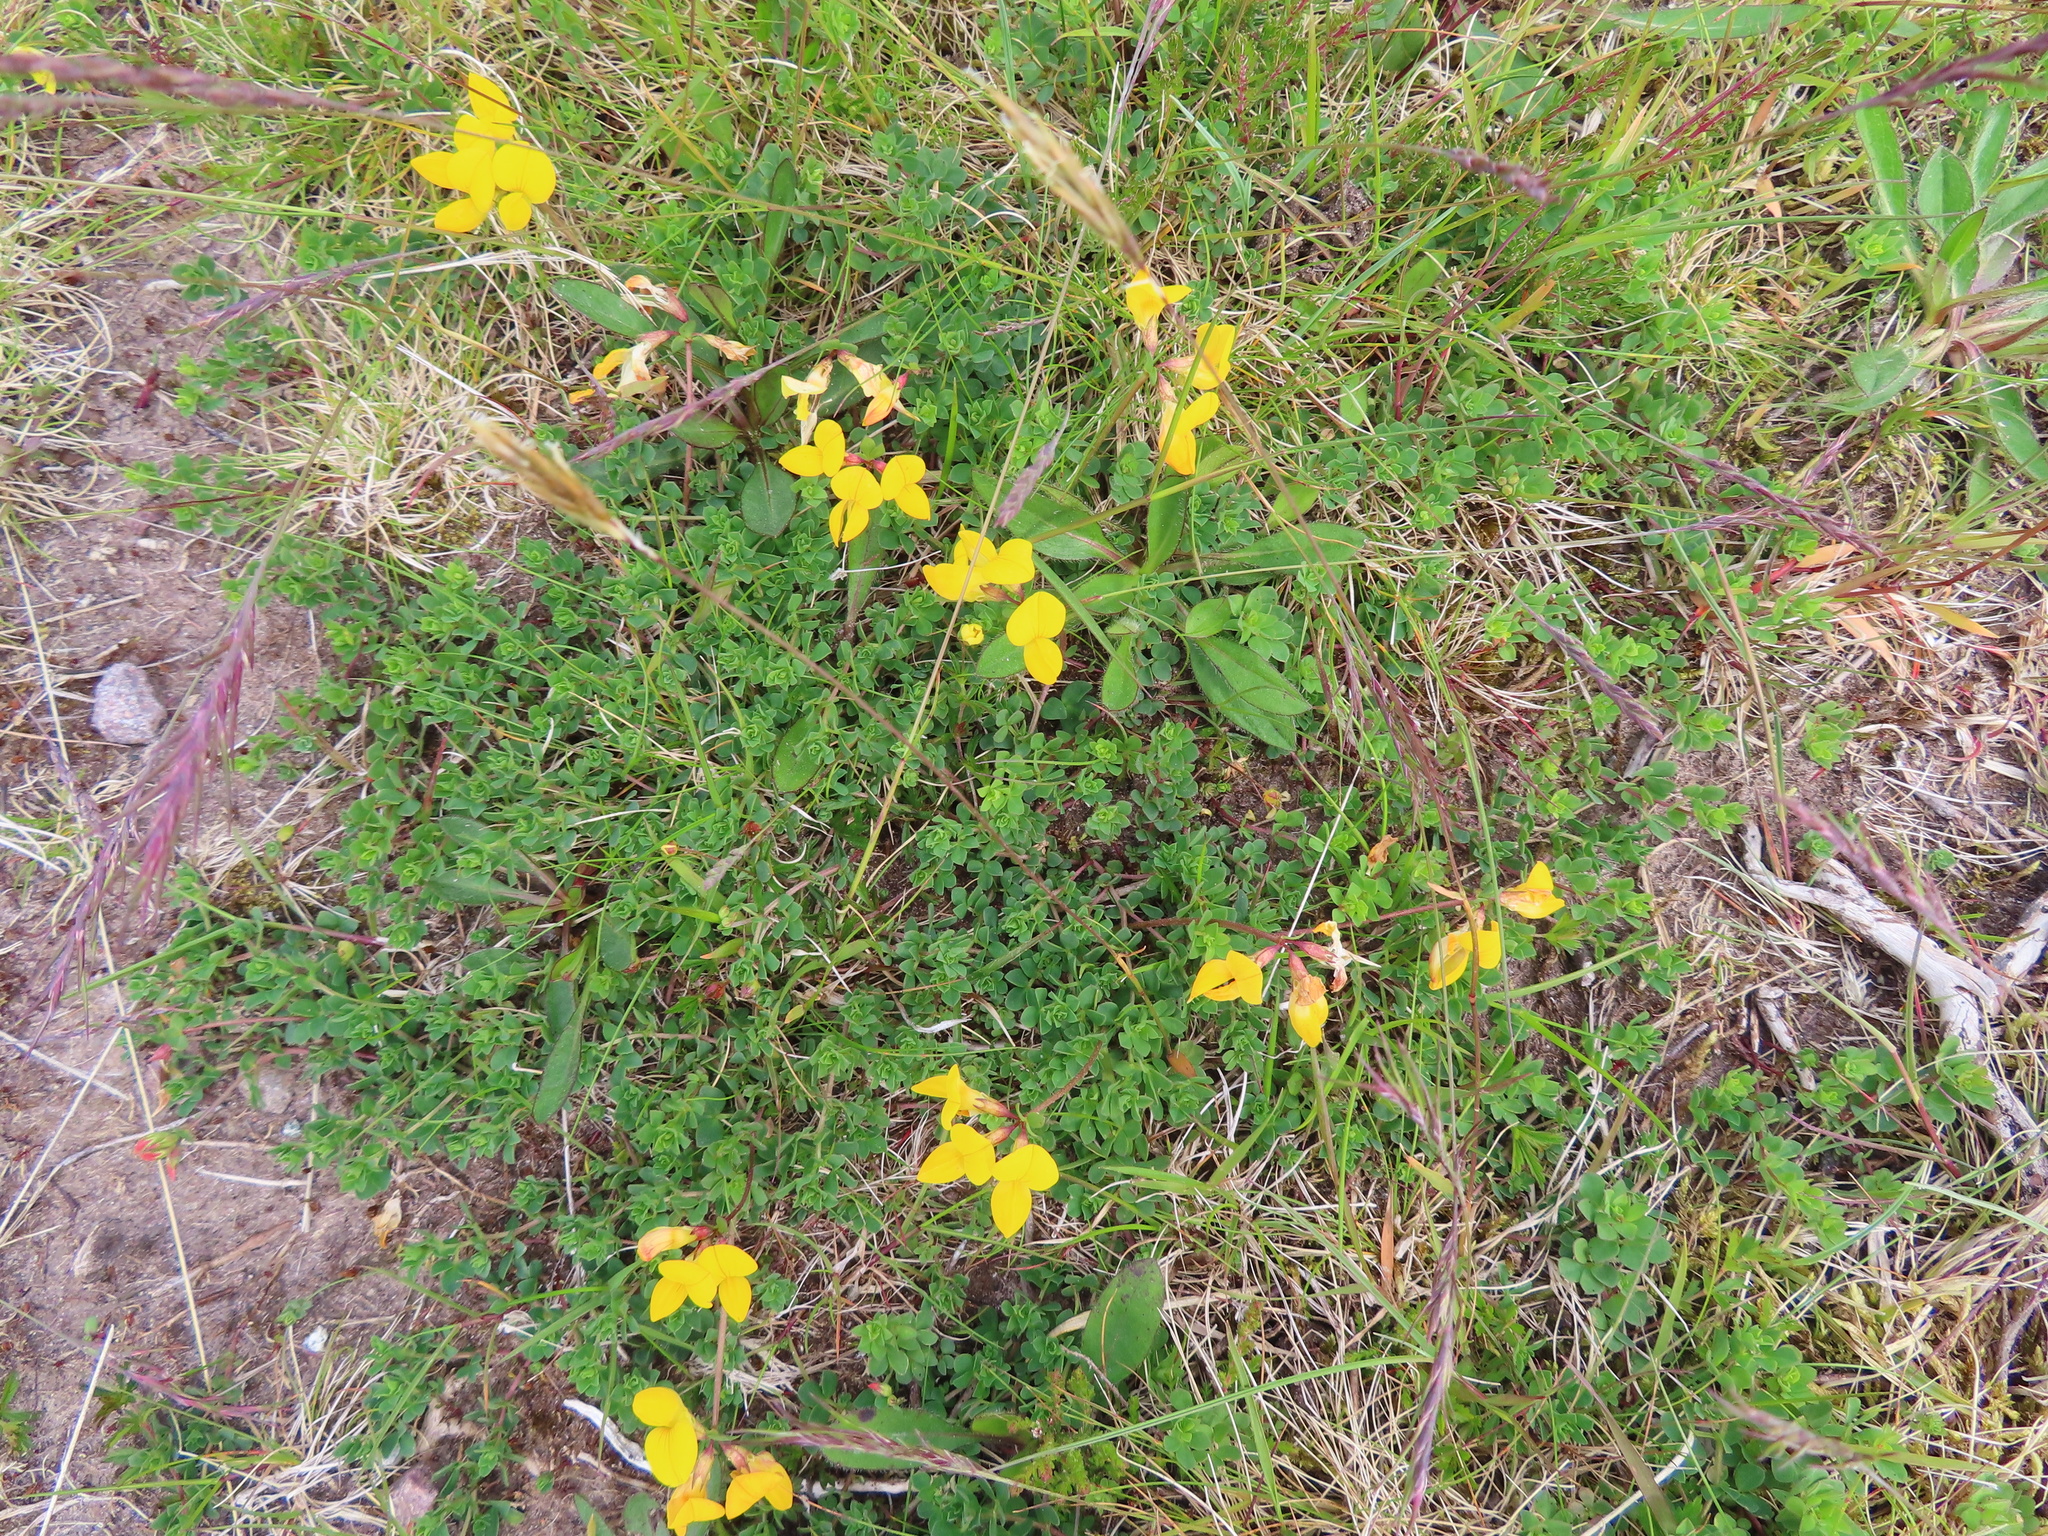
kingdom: Plantae
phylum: Tracheophyta
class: Magnoliopsida
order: Fabales
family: Fabaceae
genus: Lotus
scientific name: Lotus corniculatus
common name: Common bird's-foot-trefoil
